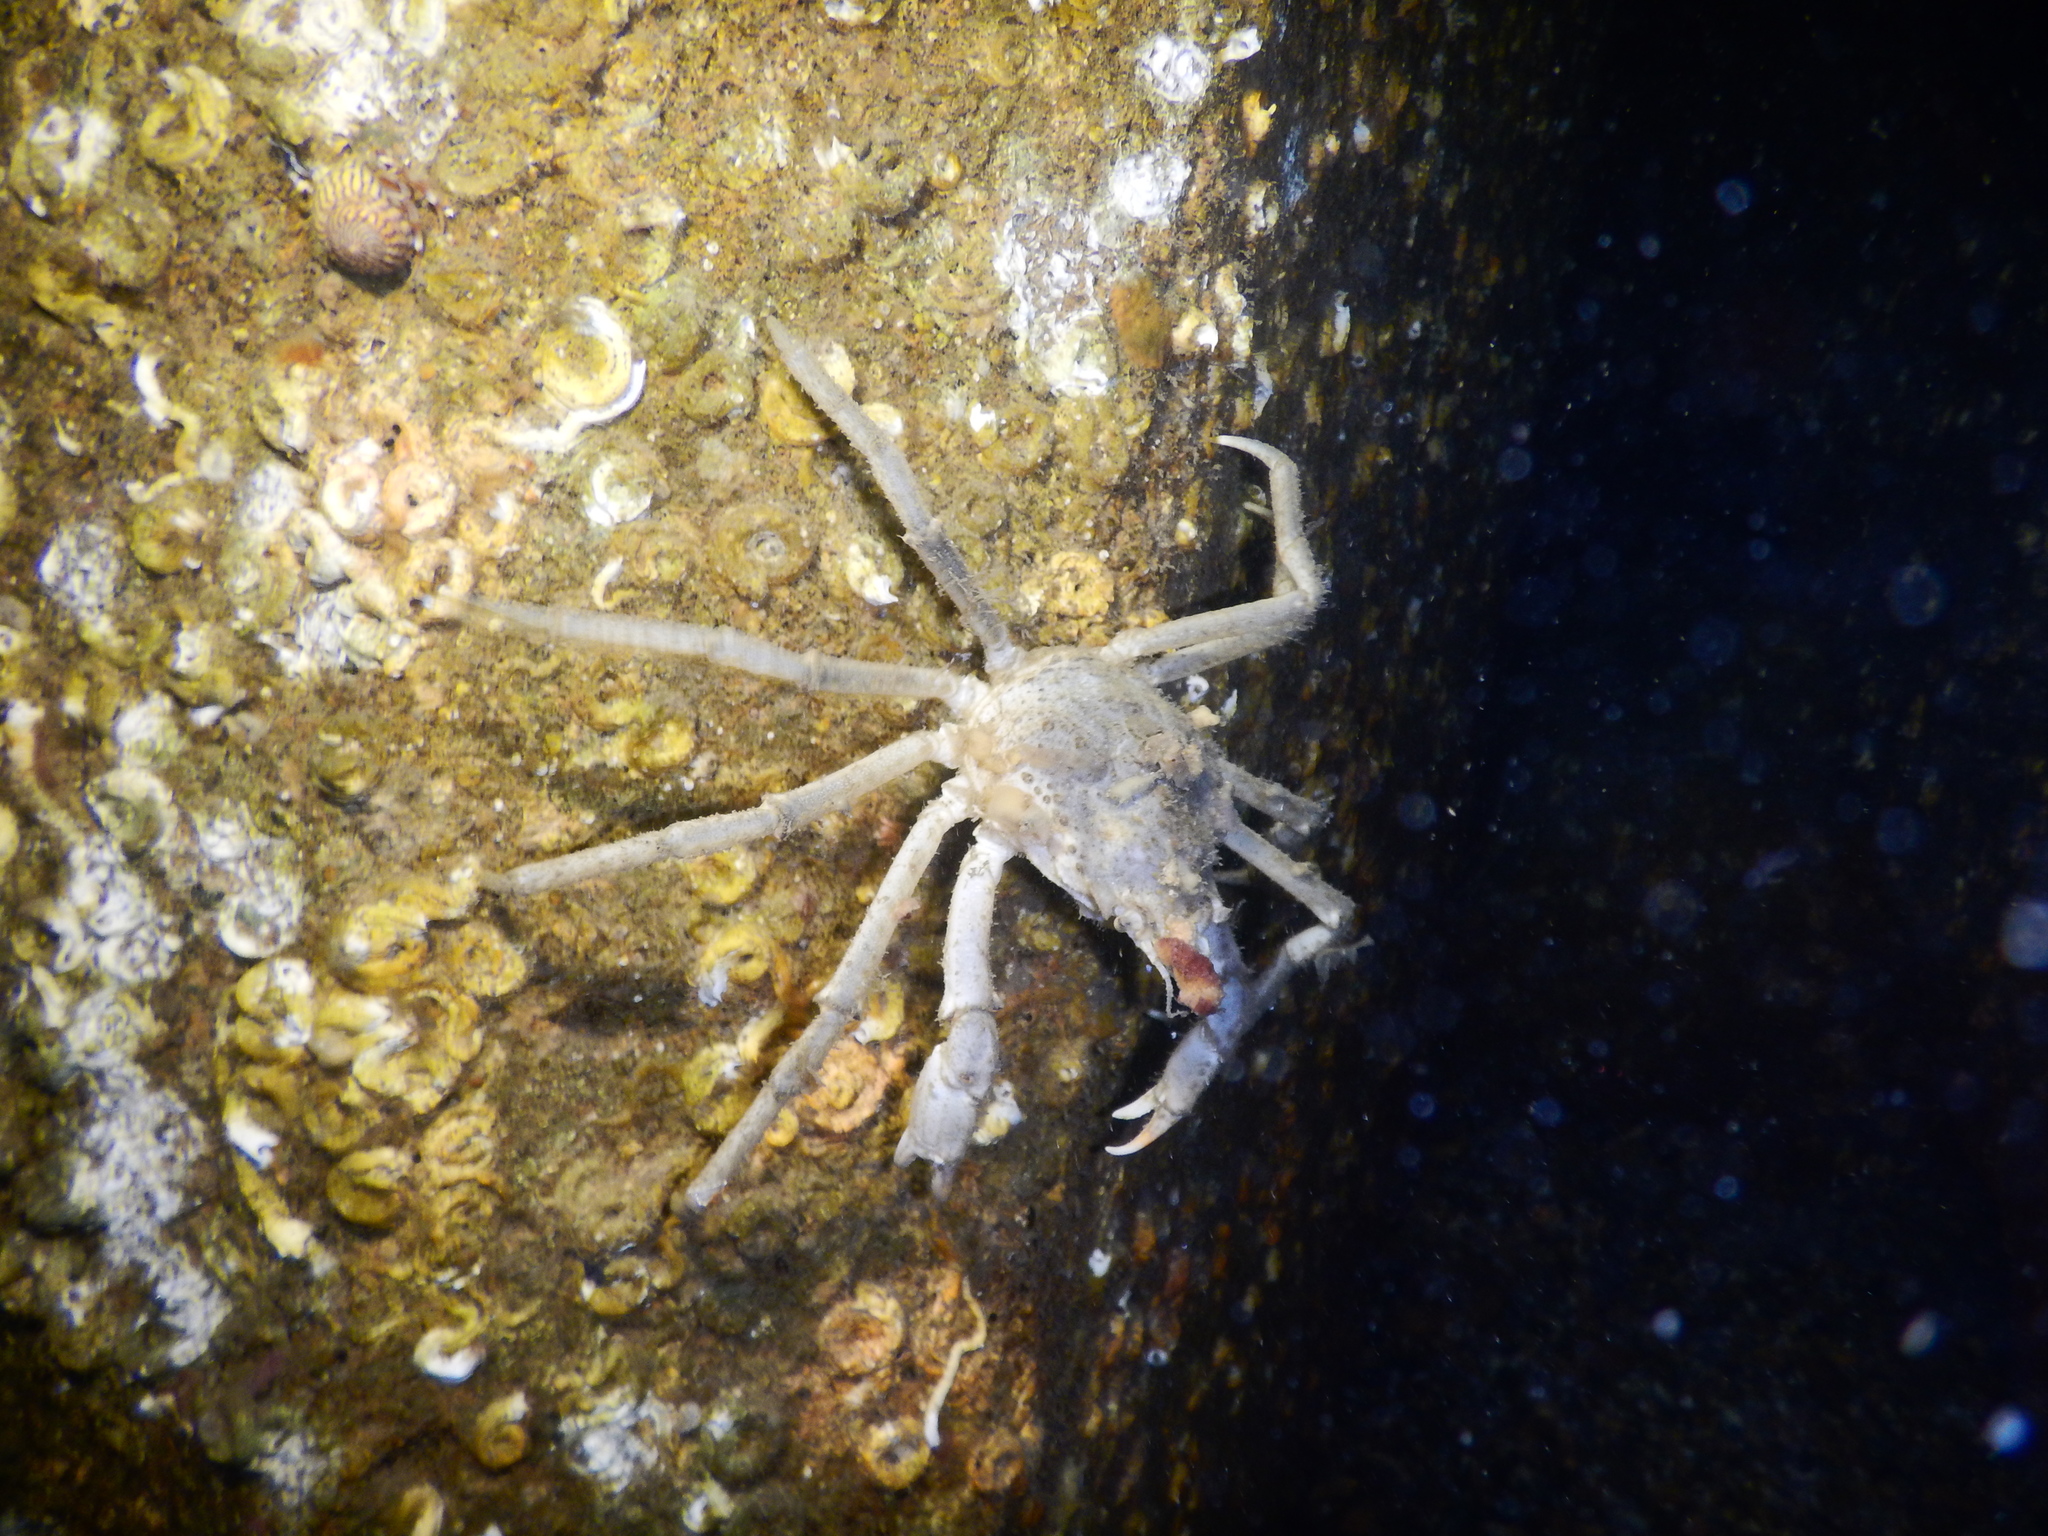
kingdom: Animalia
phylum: Arthropoda
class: Malacostraca
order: Decapoda
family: Oregoniidae
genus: Hyas
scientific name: Hyas araneus
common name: Great spider crab
